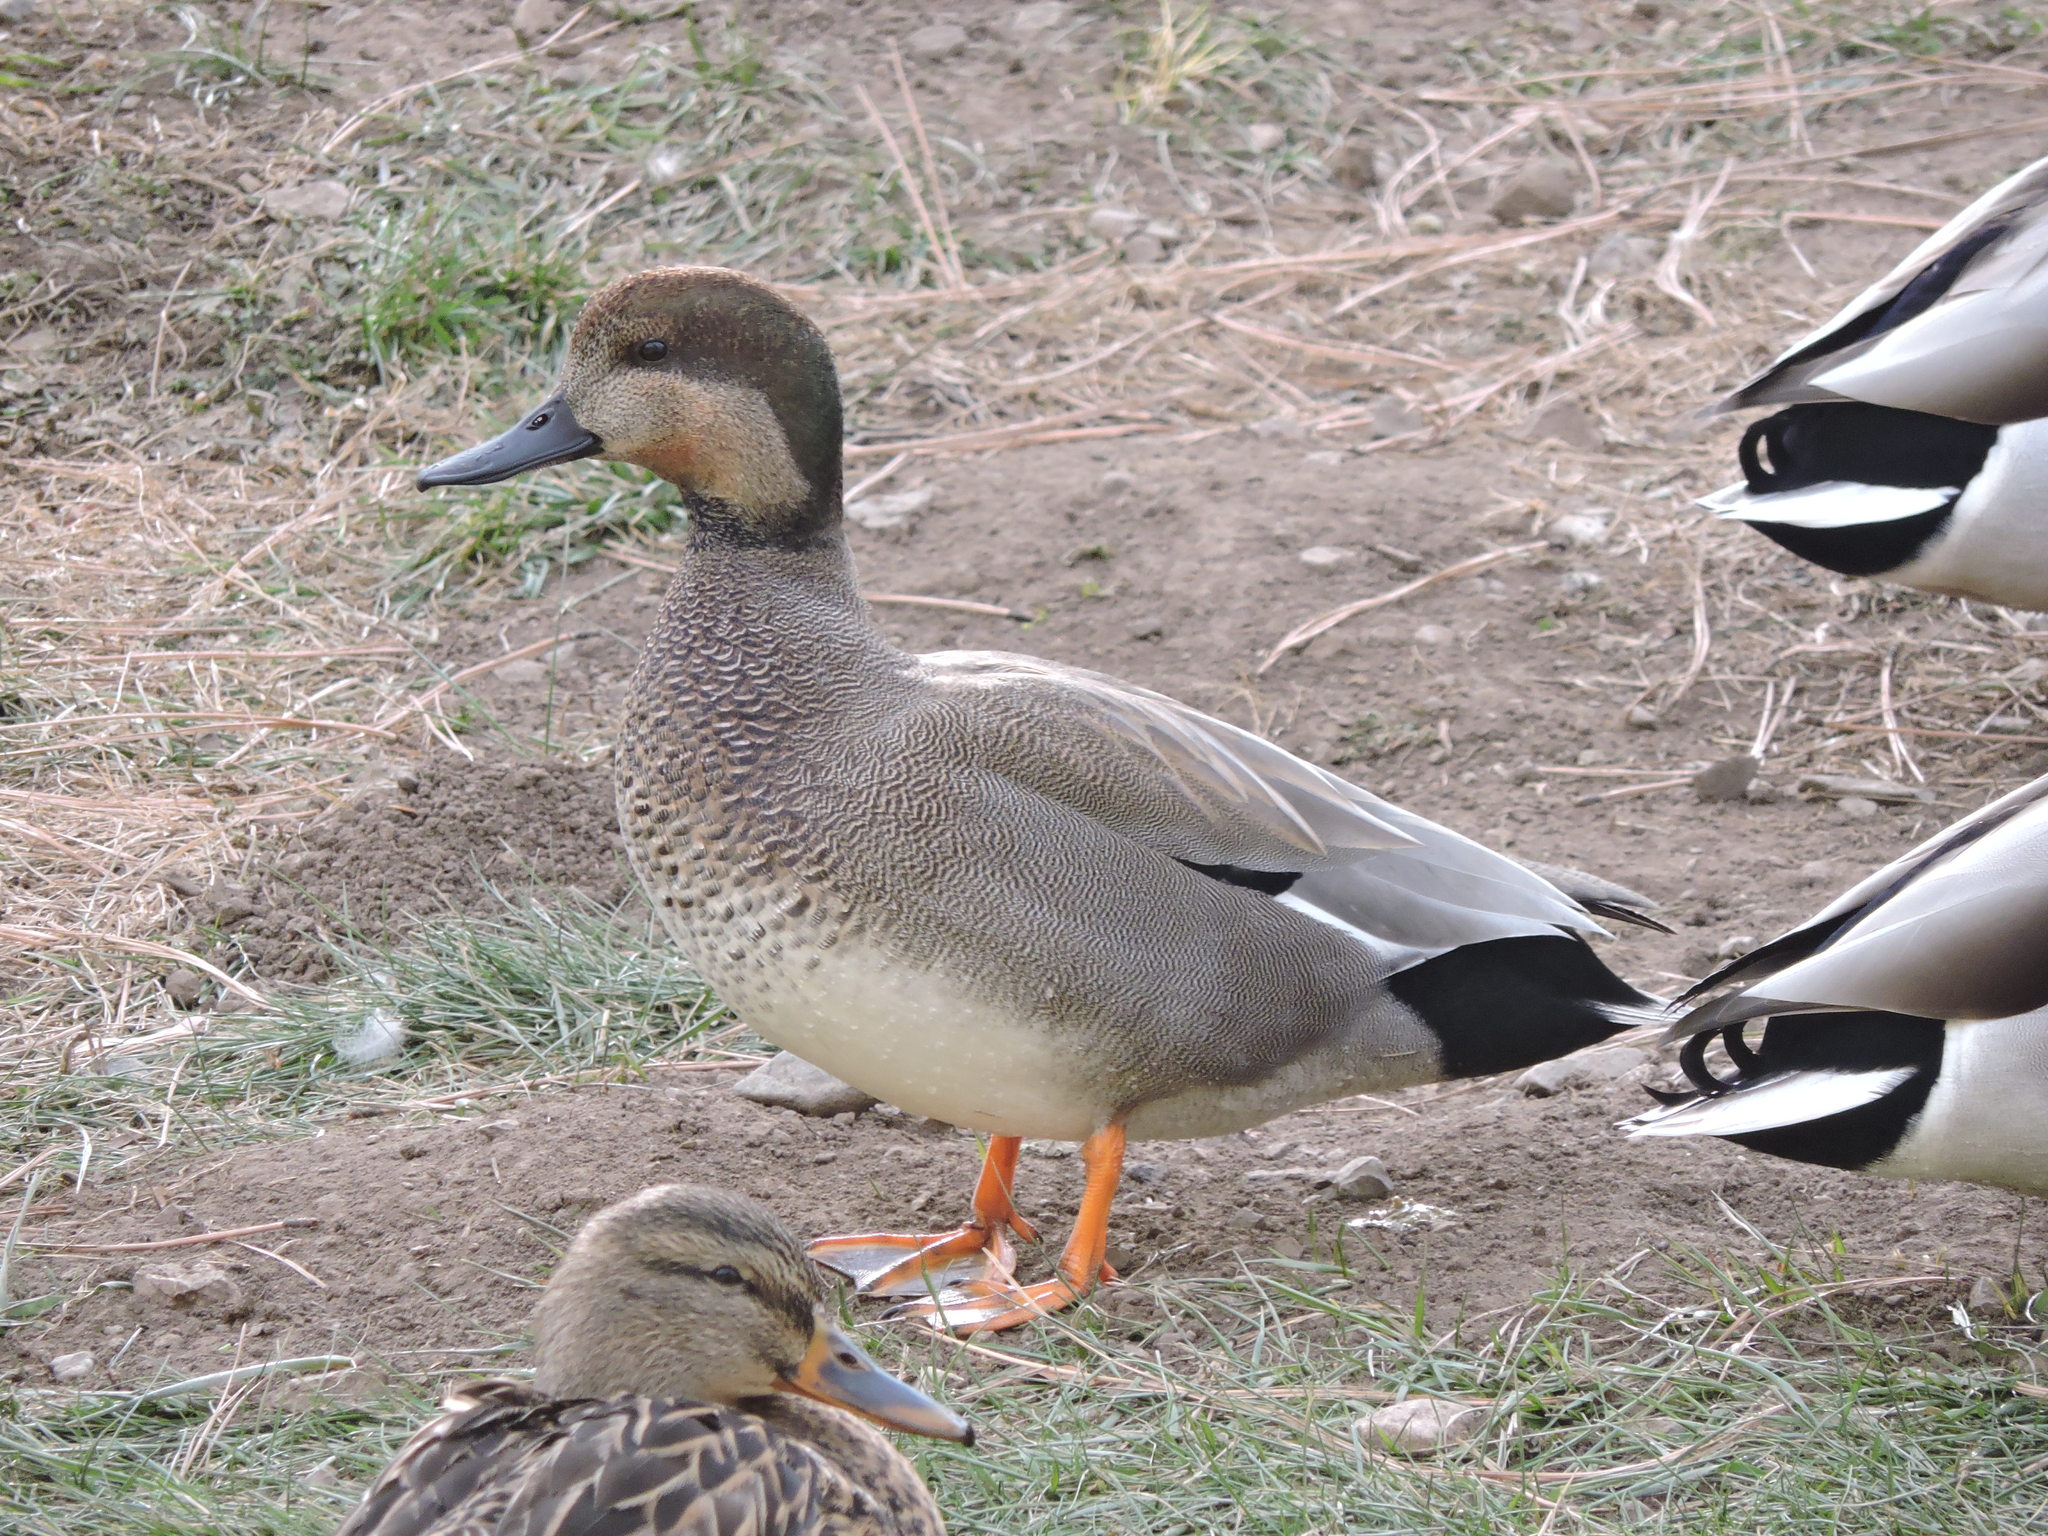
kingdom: Animalia
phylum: Chordata
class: Aves
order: Anseriformes
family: Anatidae
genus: Mareca
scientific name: Mareca strepera
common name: Gadwall
